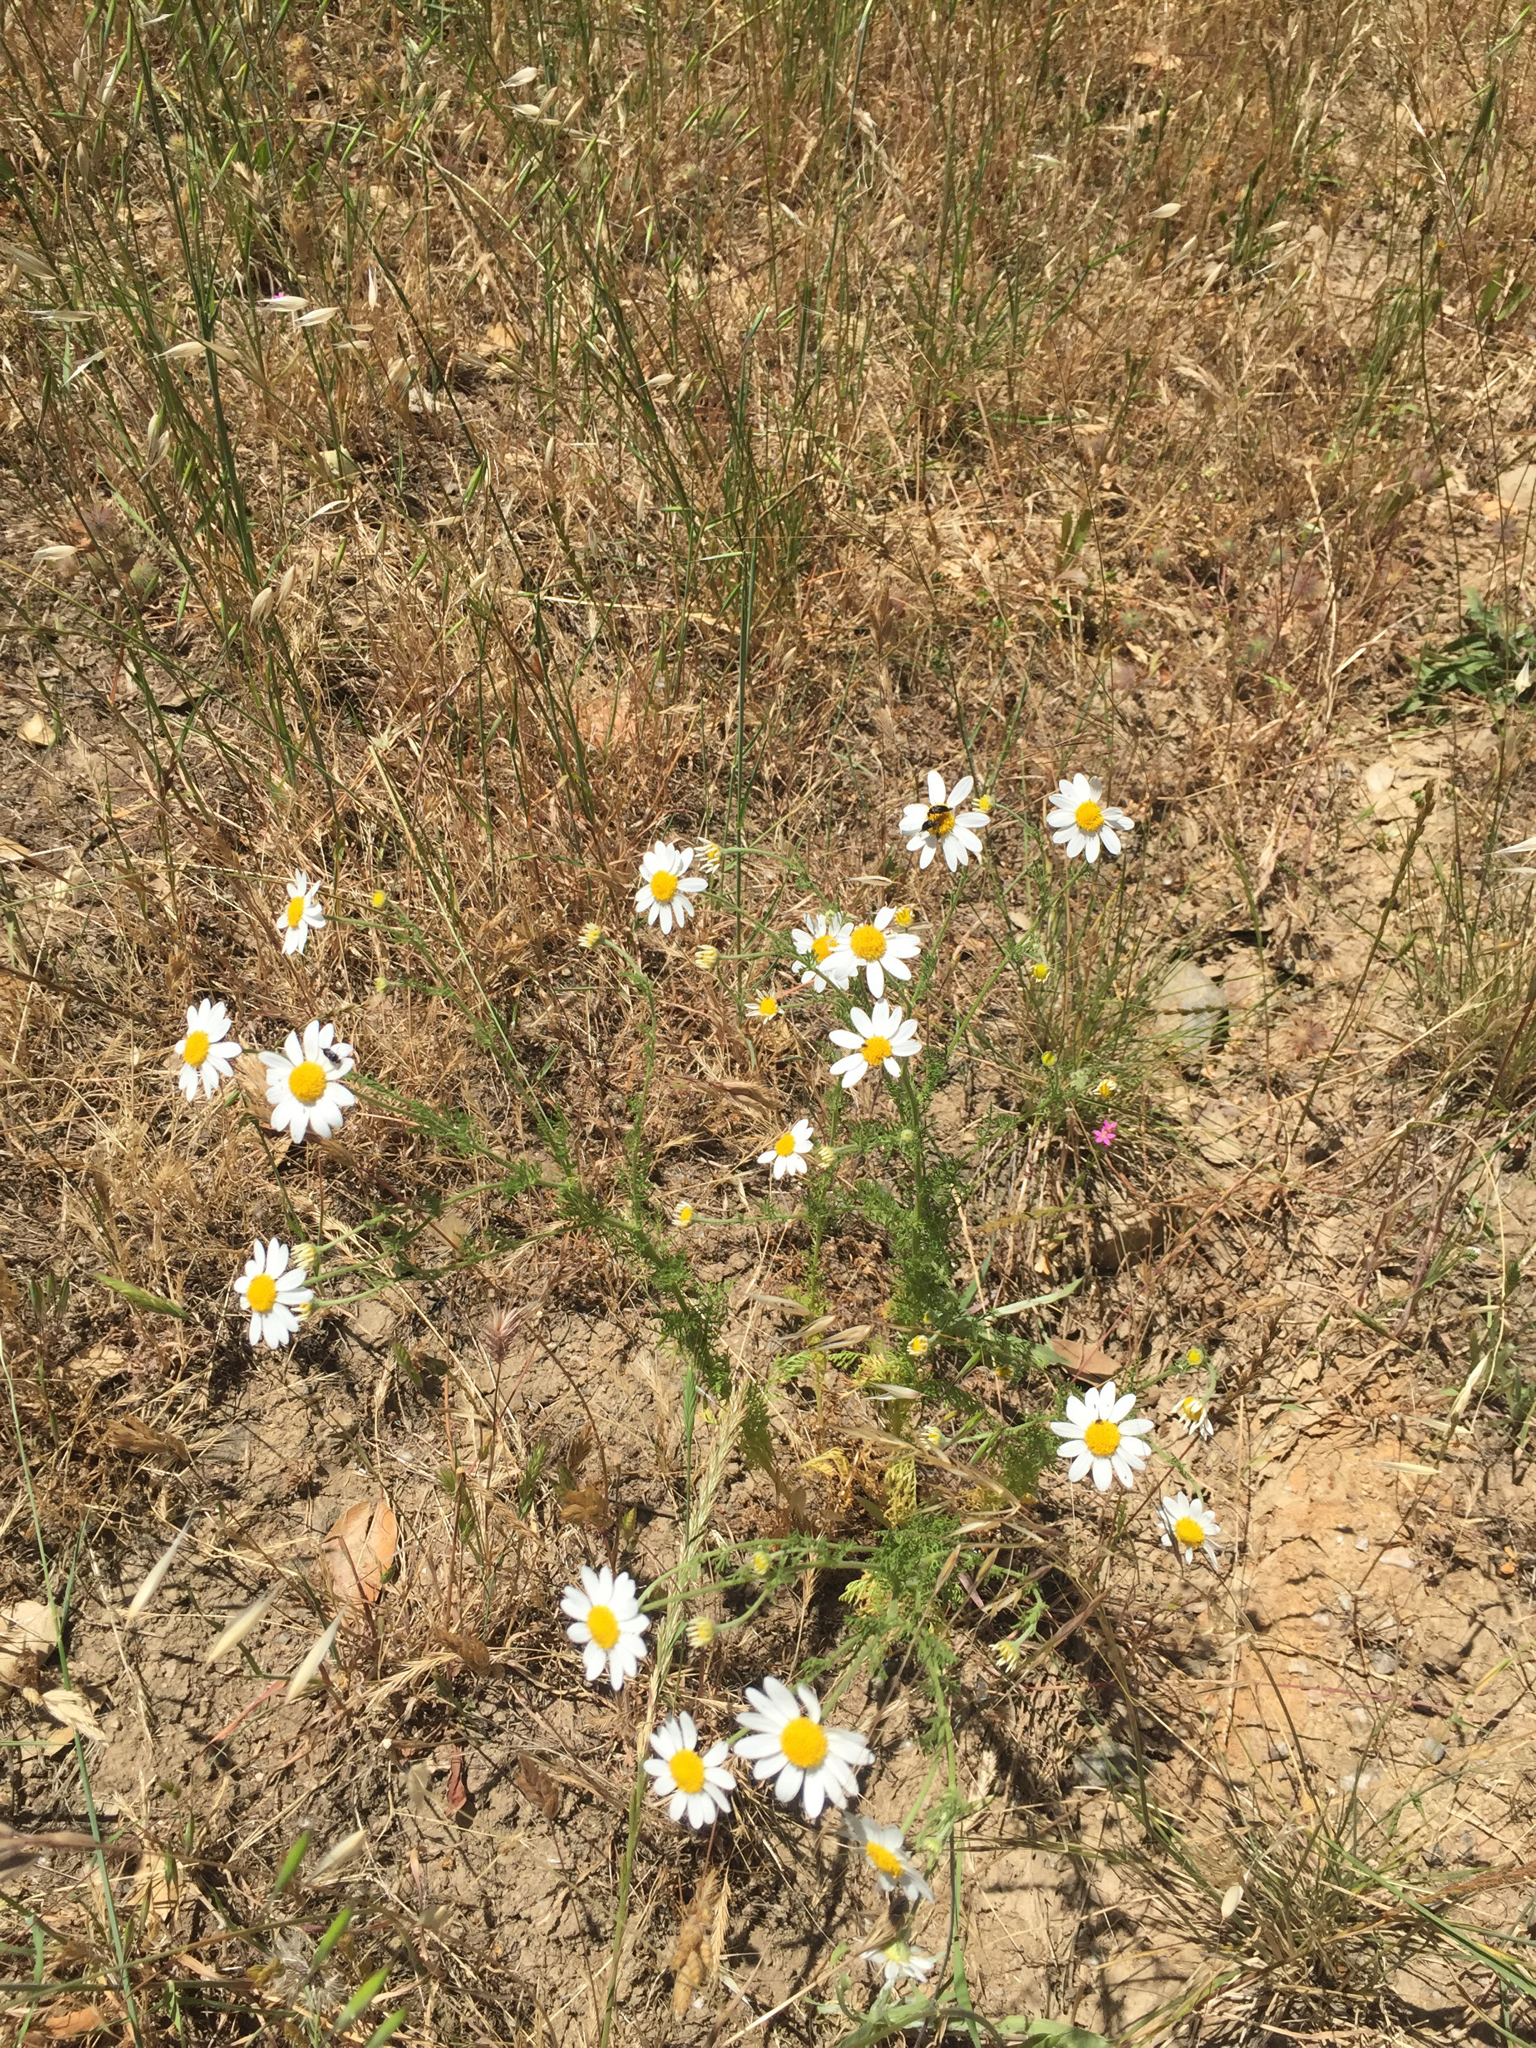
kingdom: Plantae
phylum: Tracheophyta
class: Magnoliopsida
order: Asterales
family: Asteraceae
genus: Anthemis
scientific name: Anthemis cotula
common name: Stinking chamomile
